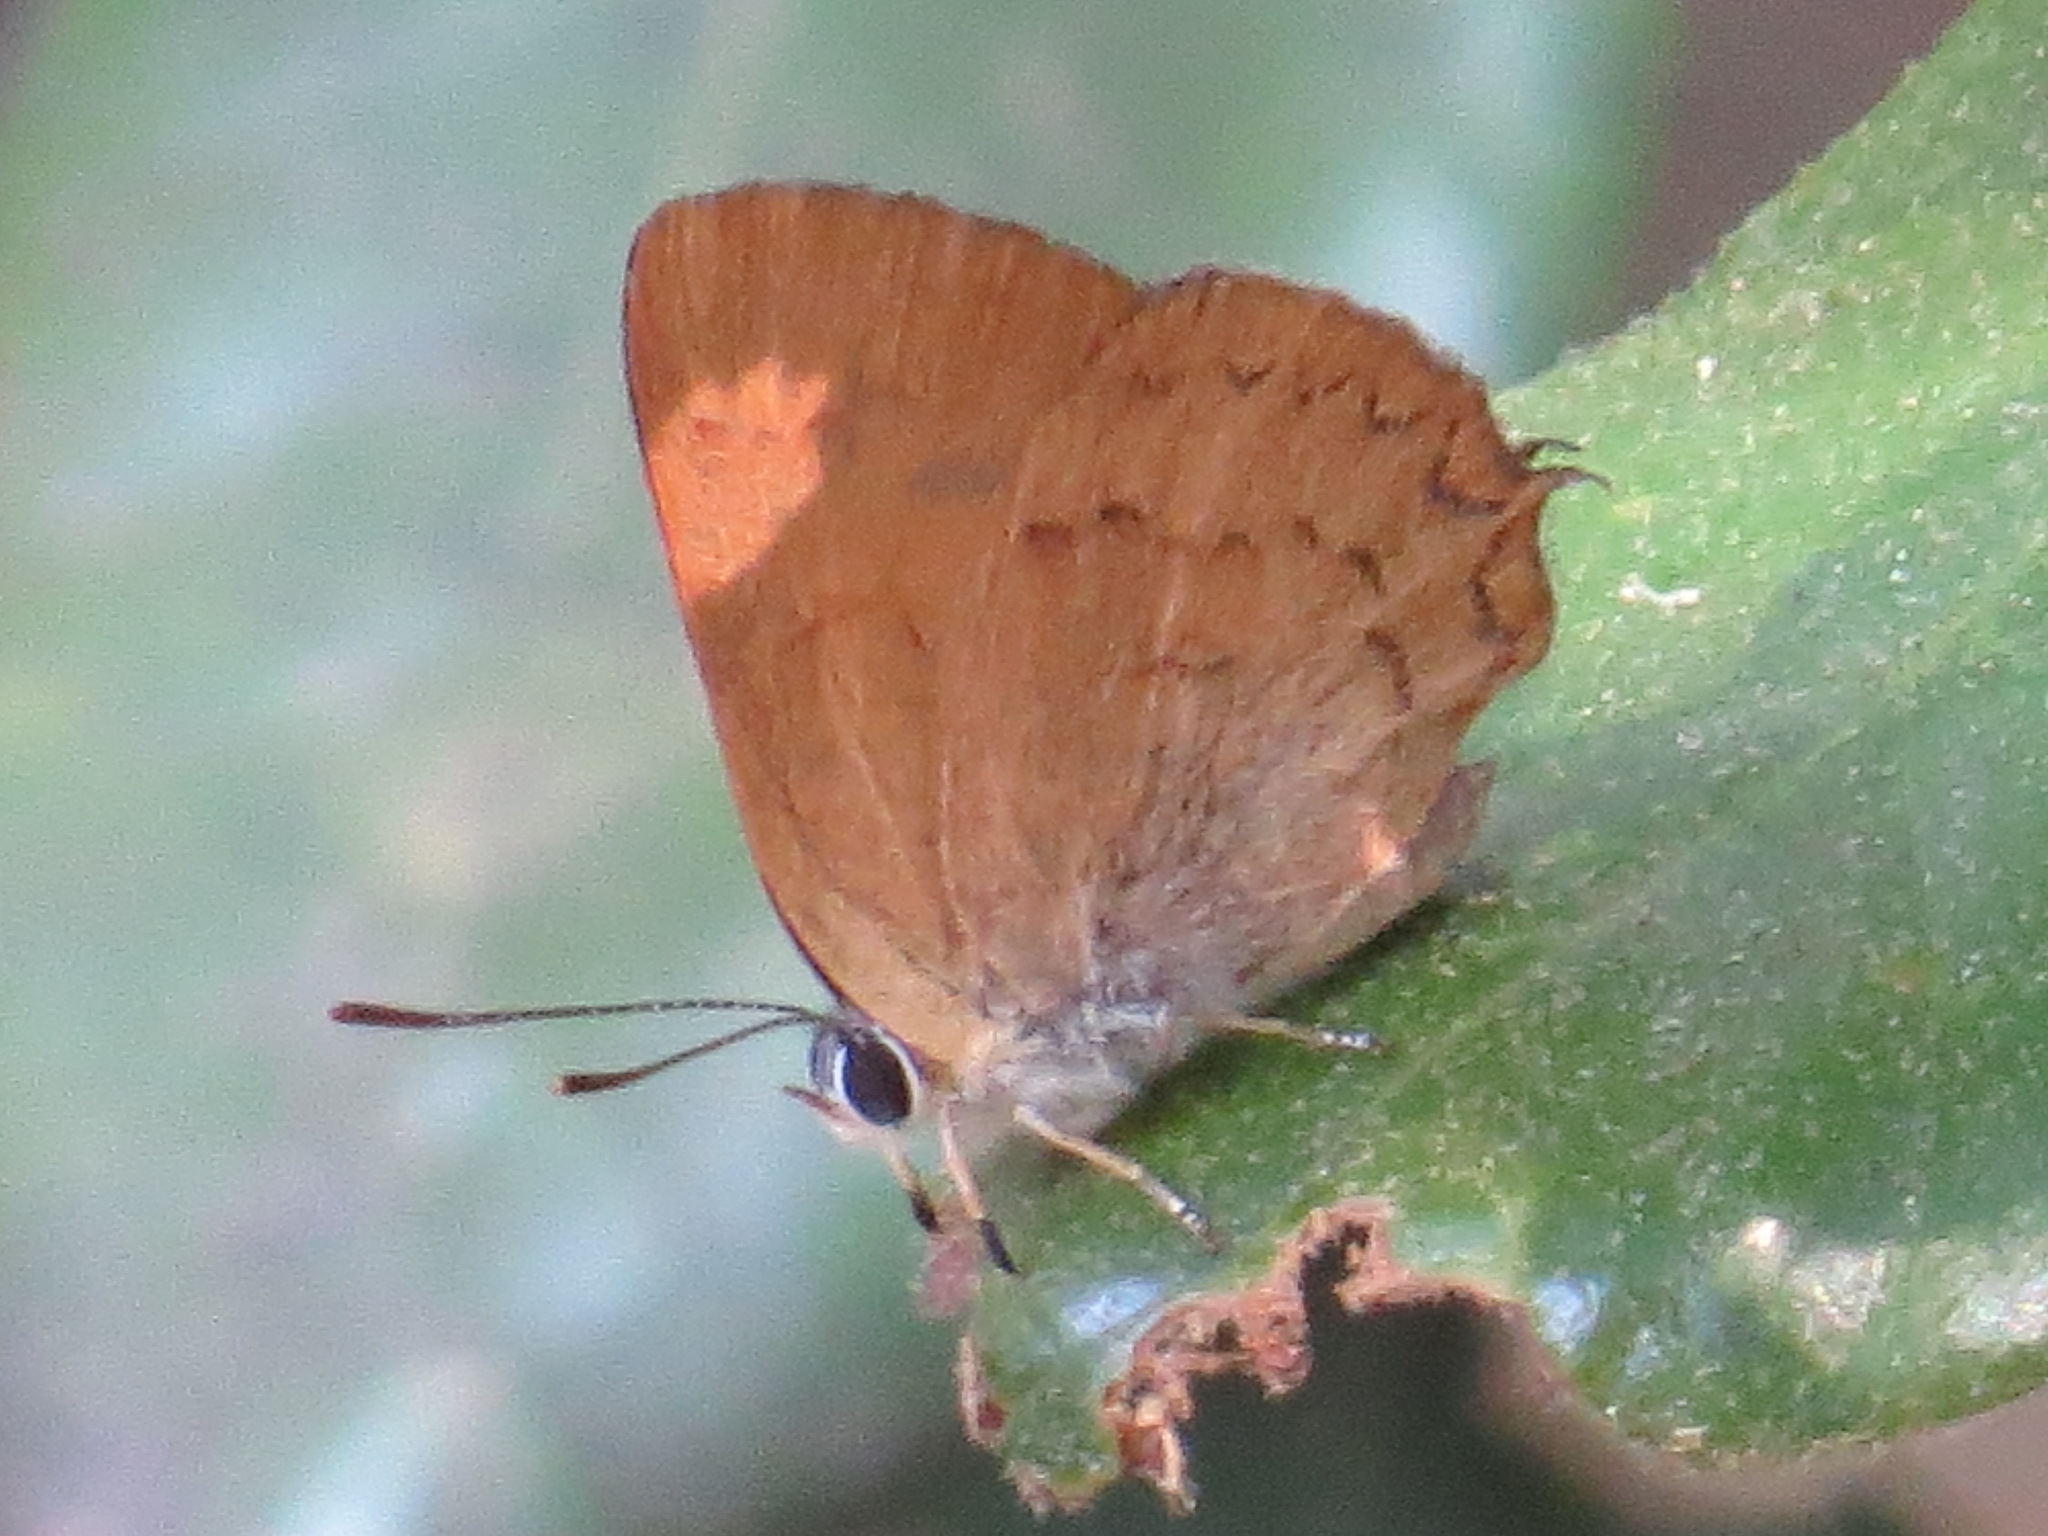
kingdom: Animalia
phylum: Arthropoda
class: Insecta
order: Lepidoptera
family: Lycaenidae
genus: Habrodais
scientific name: Habrodais grunus
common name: Golden hairstreak
